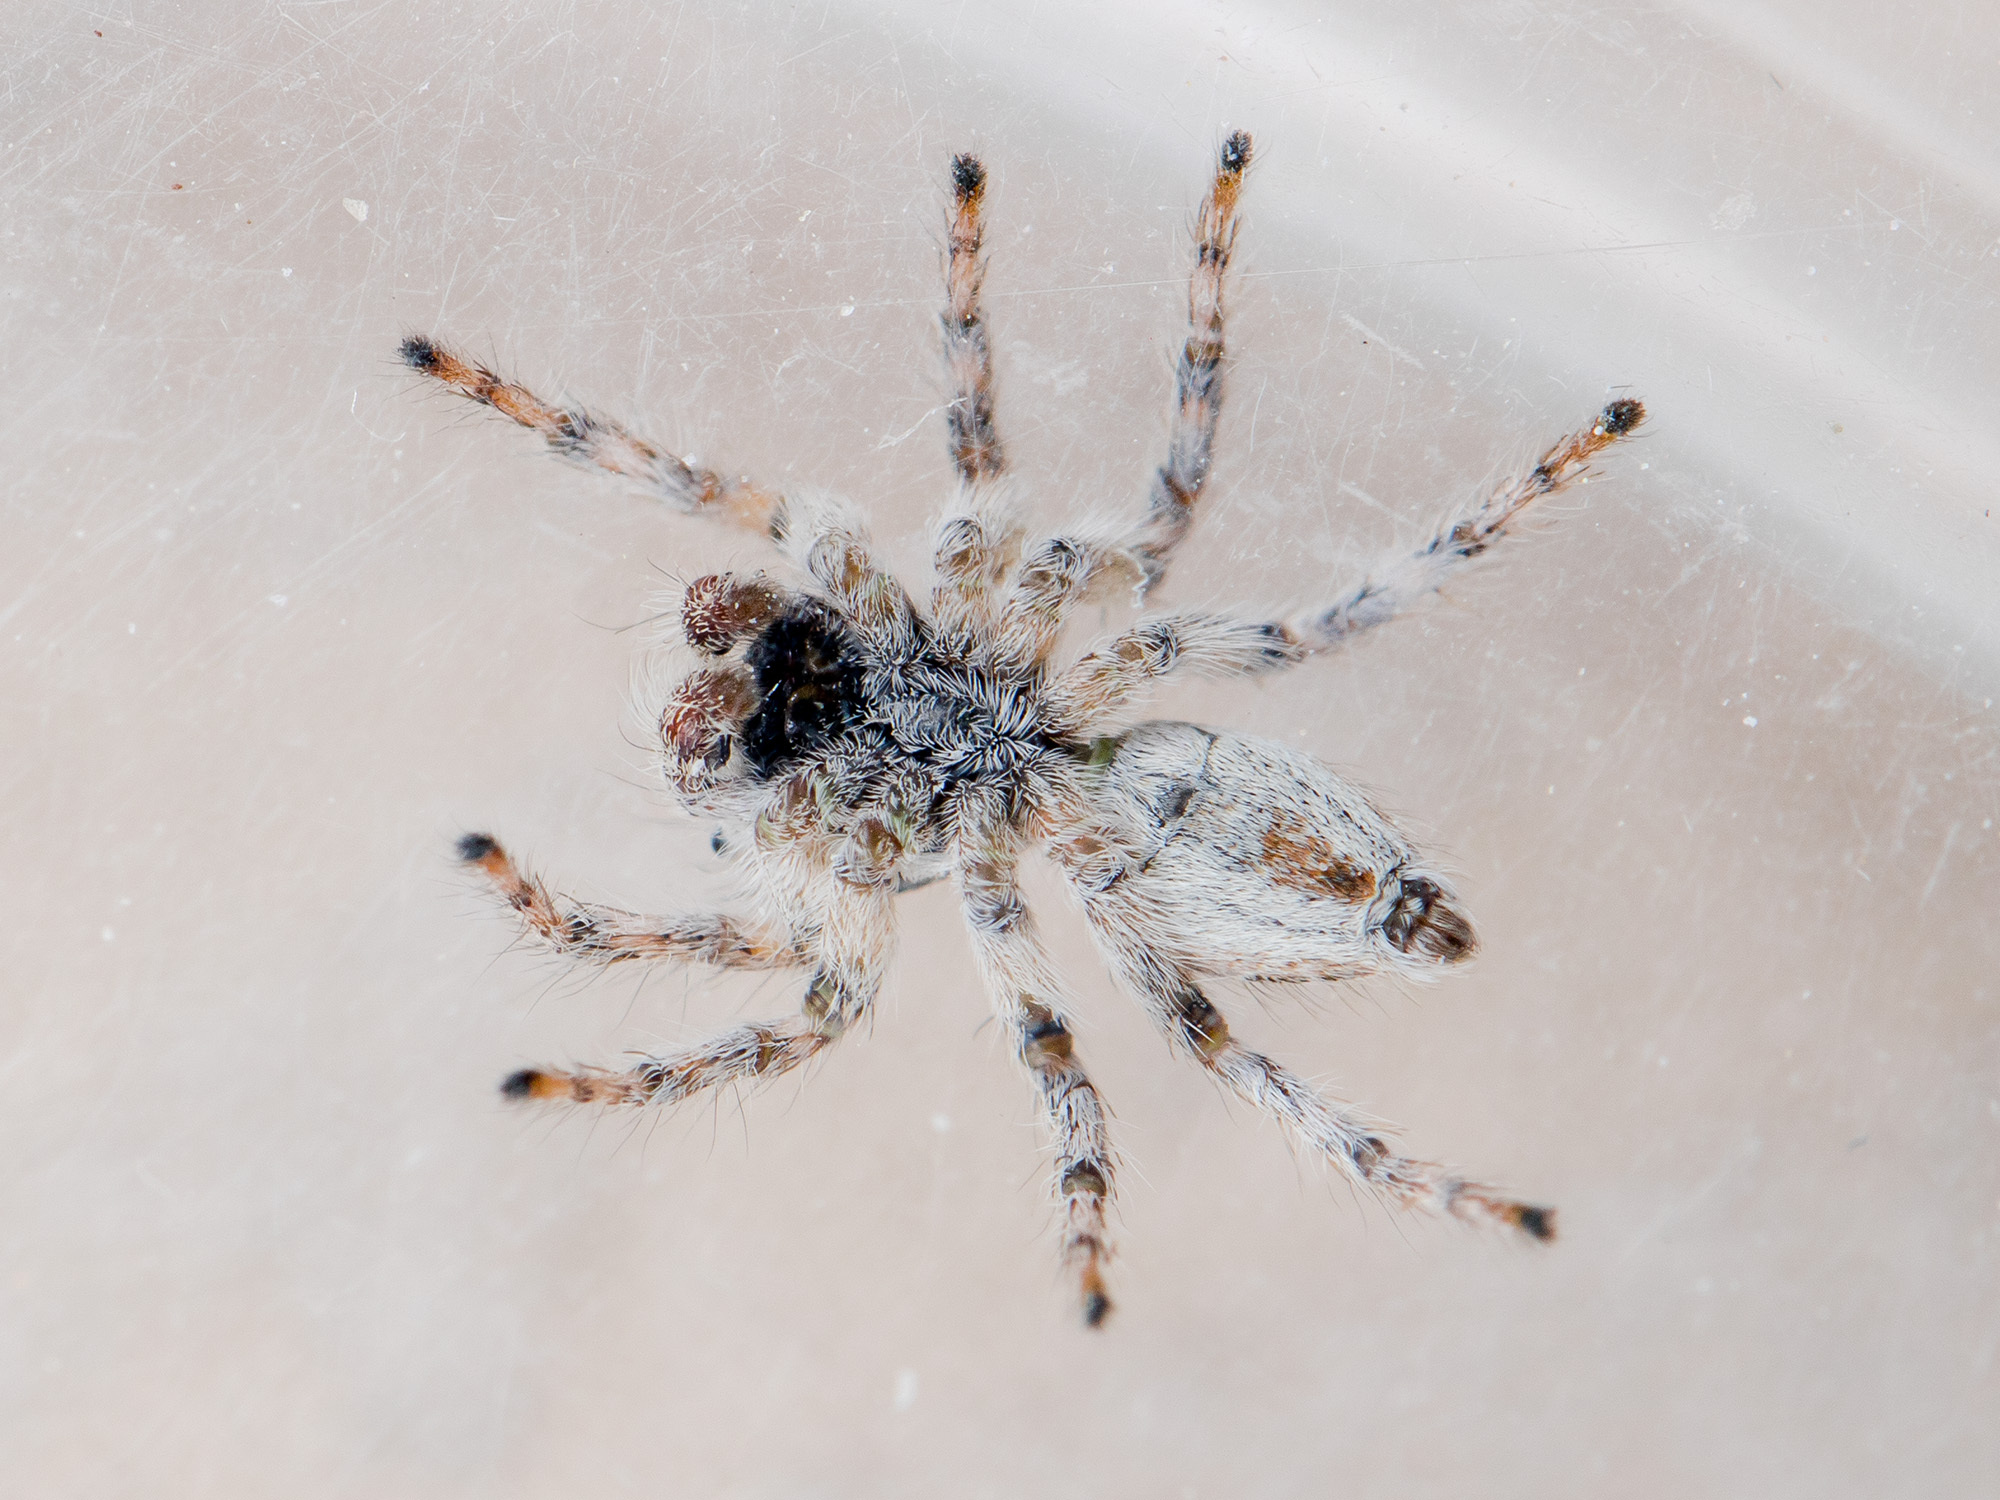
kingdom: Animalia
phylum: Arthropoda
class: Arachnida
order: Araneae
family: Salticidae
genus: Mogrus
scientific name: Mogrus antoninus
